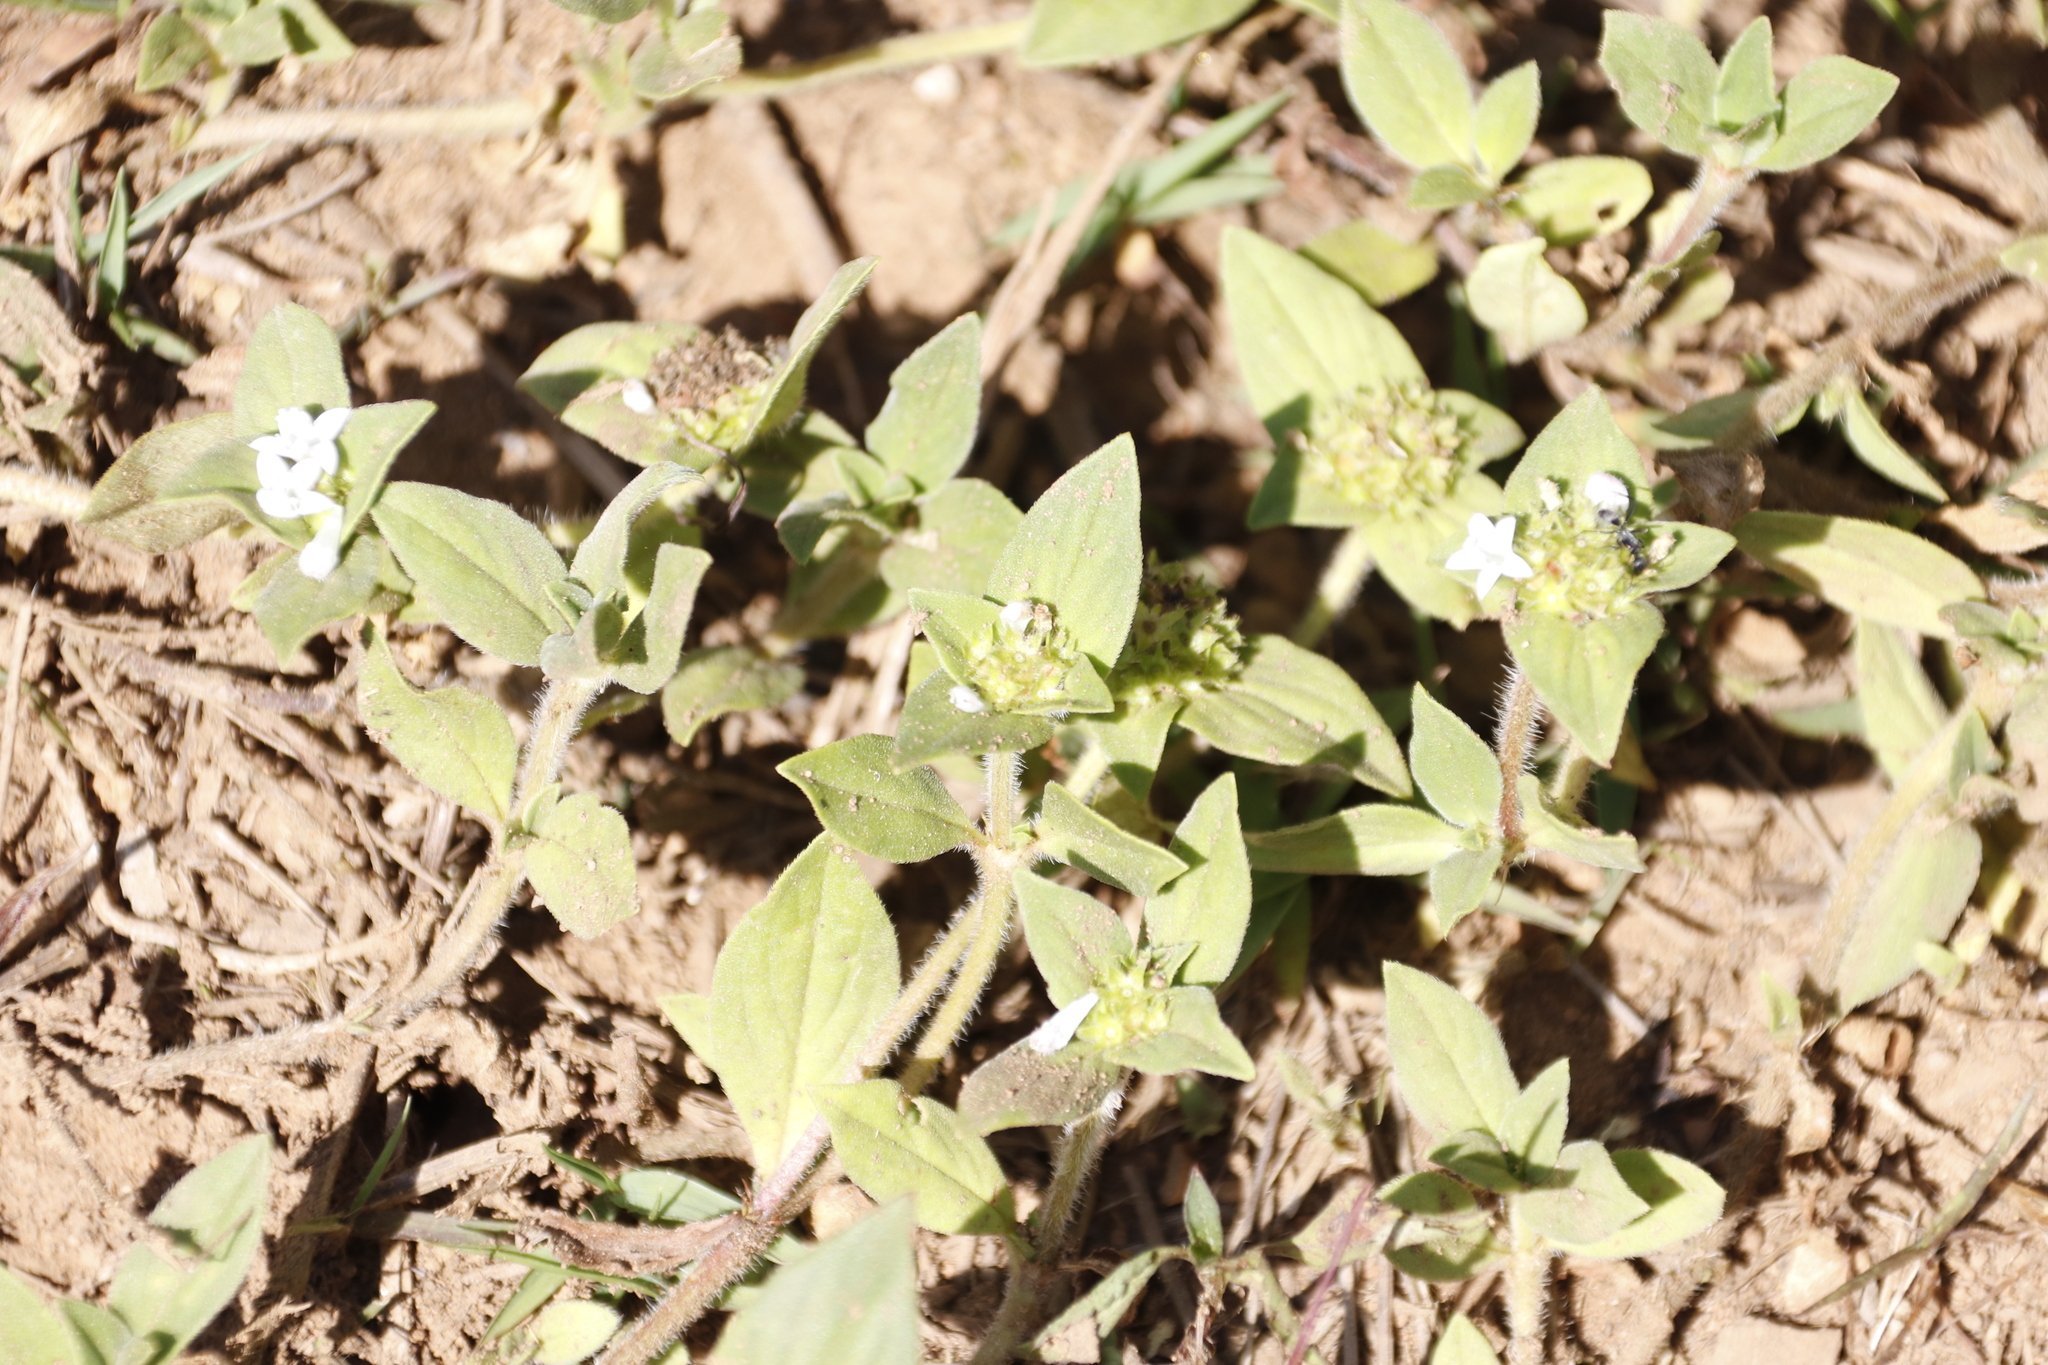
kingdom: Plantae
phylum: Tracheophyta
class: Magnoliopsida
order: Gentianales
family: Rubiaceae
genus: Richardia
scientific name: Richardia brasiliensis
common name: Tropical mexican clover
